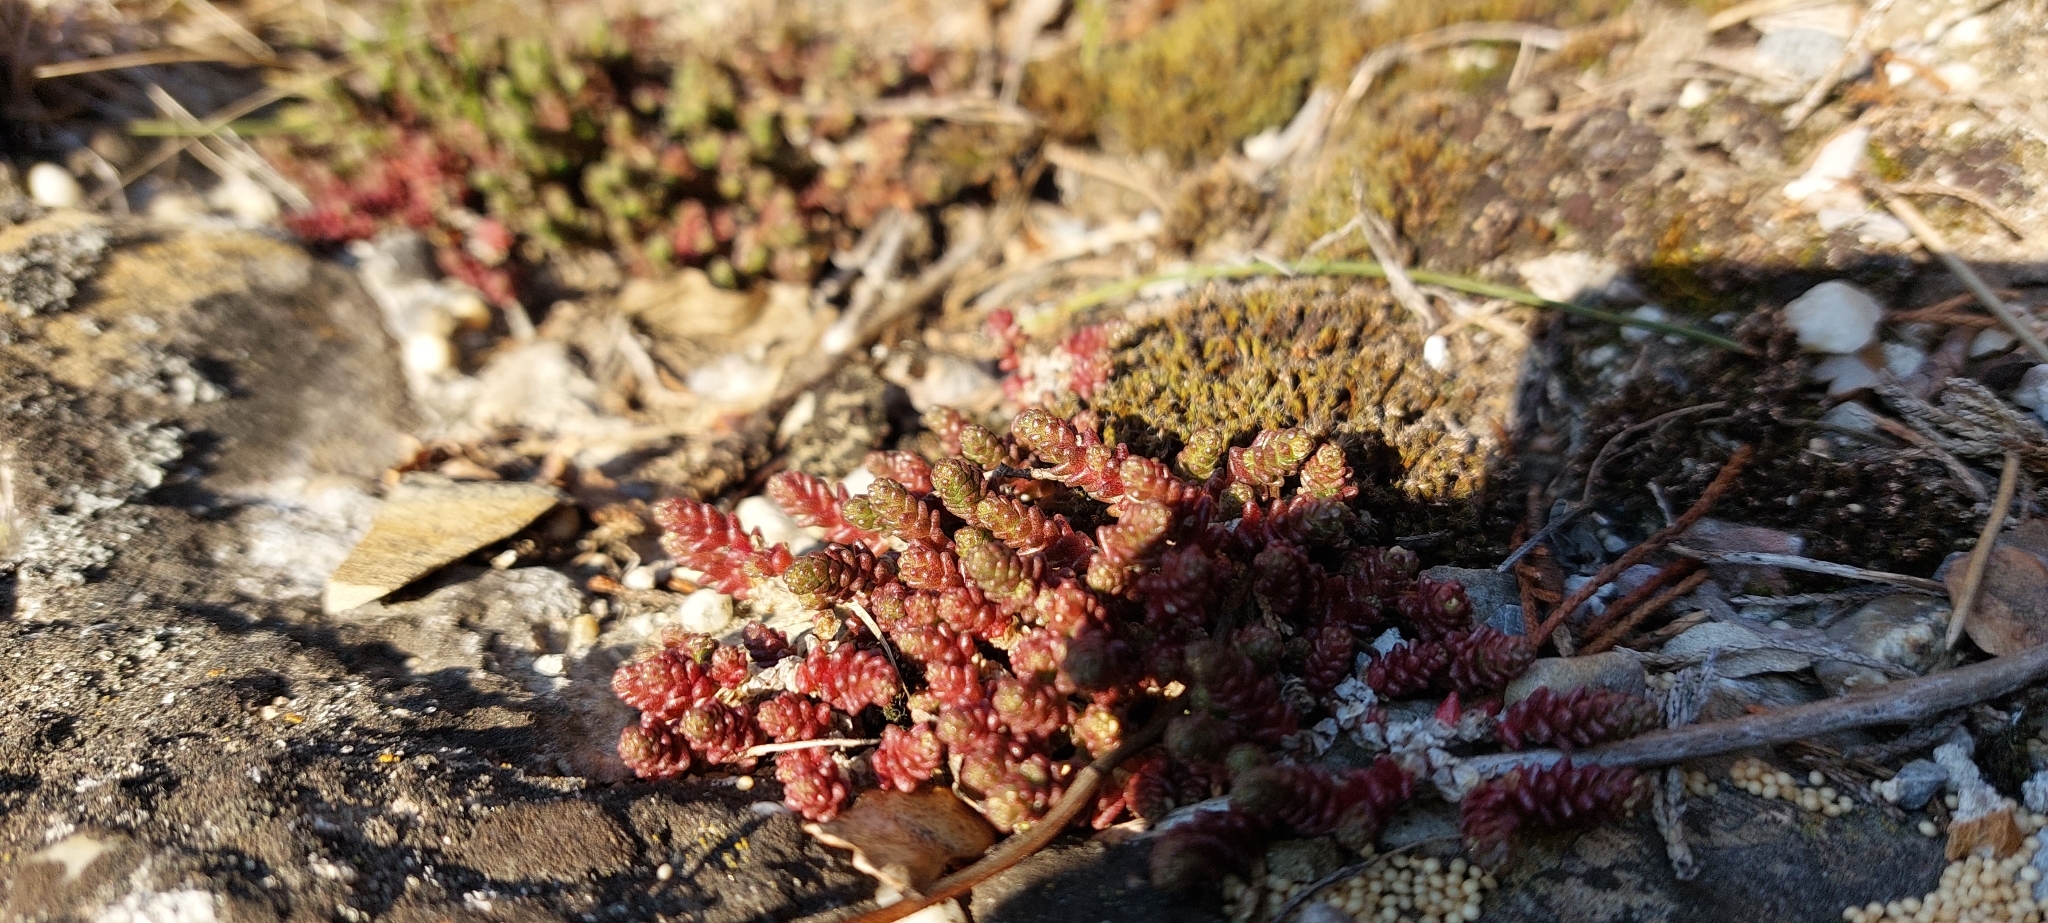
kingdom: Plantae
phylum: Tracheophyta
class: Magnoliopsida
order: Saxifragales
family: Crassulaceae
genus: Sedum
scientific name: Sedum acre
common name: Biting stonecrop
